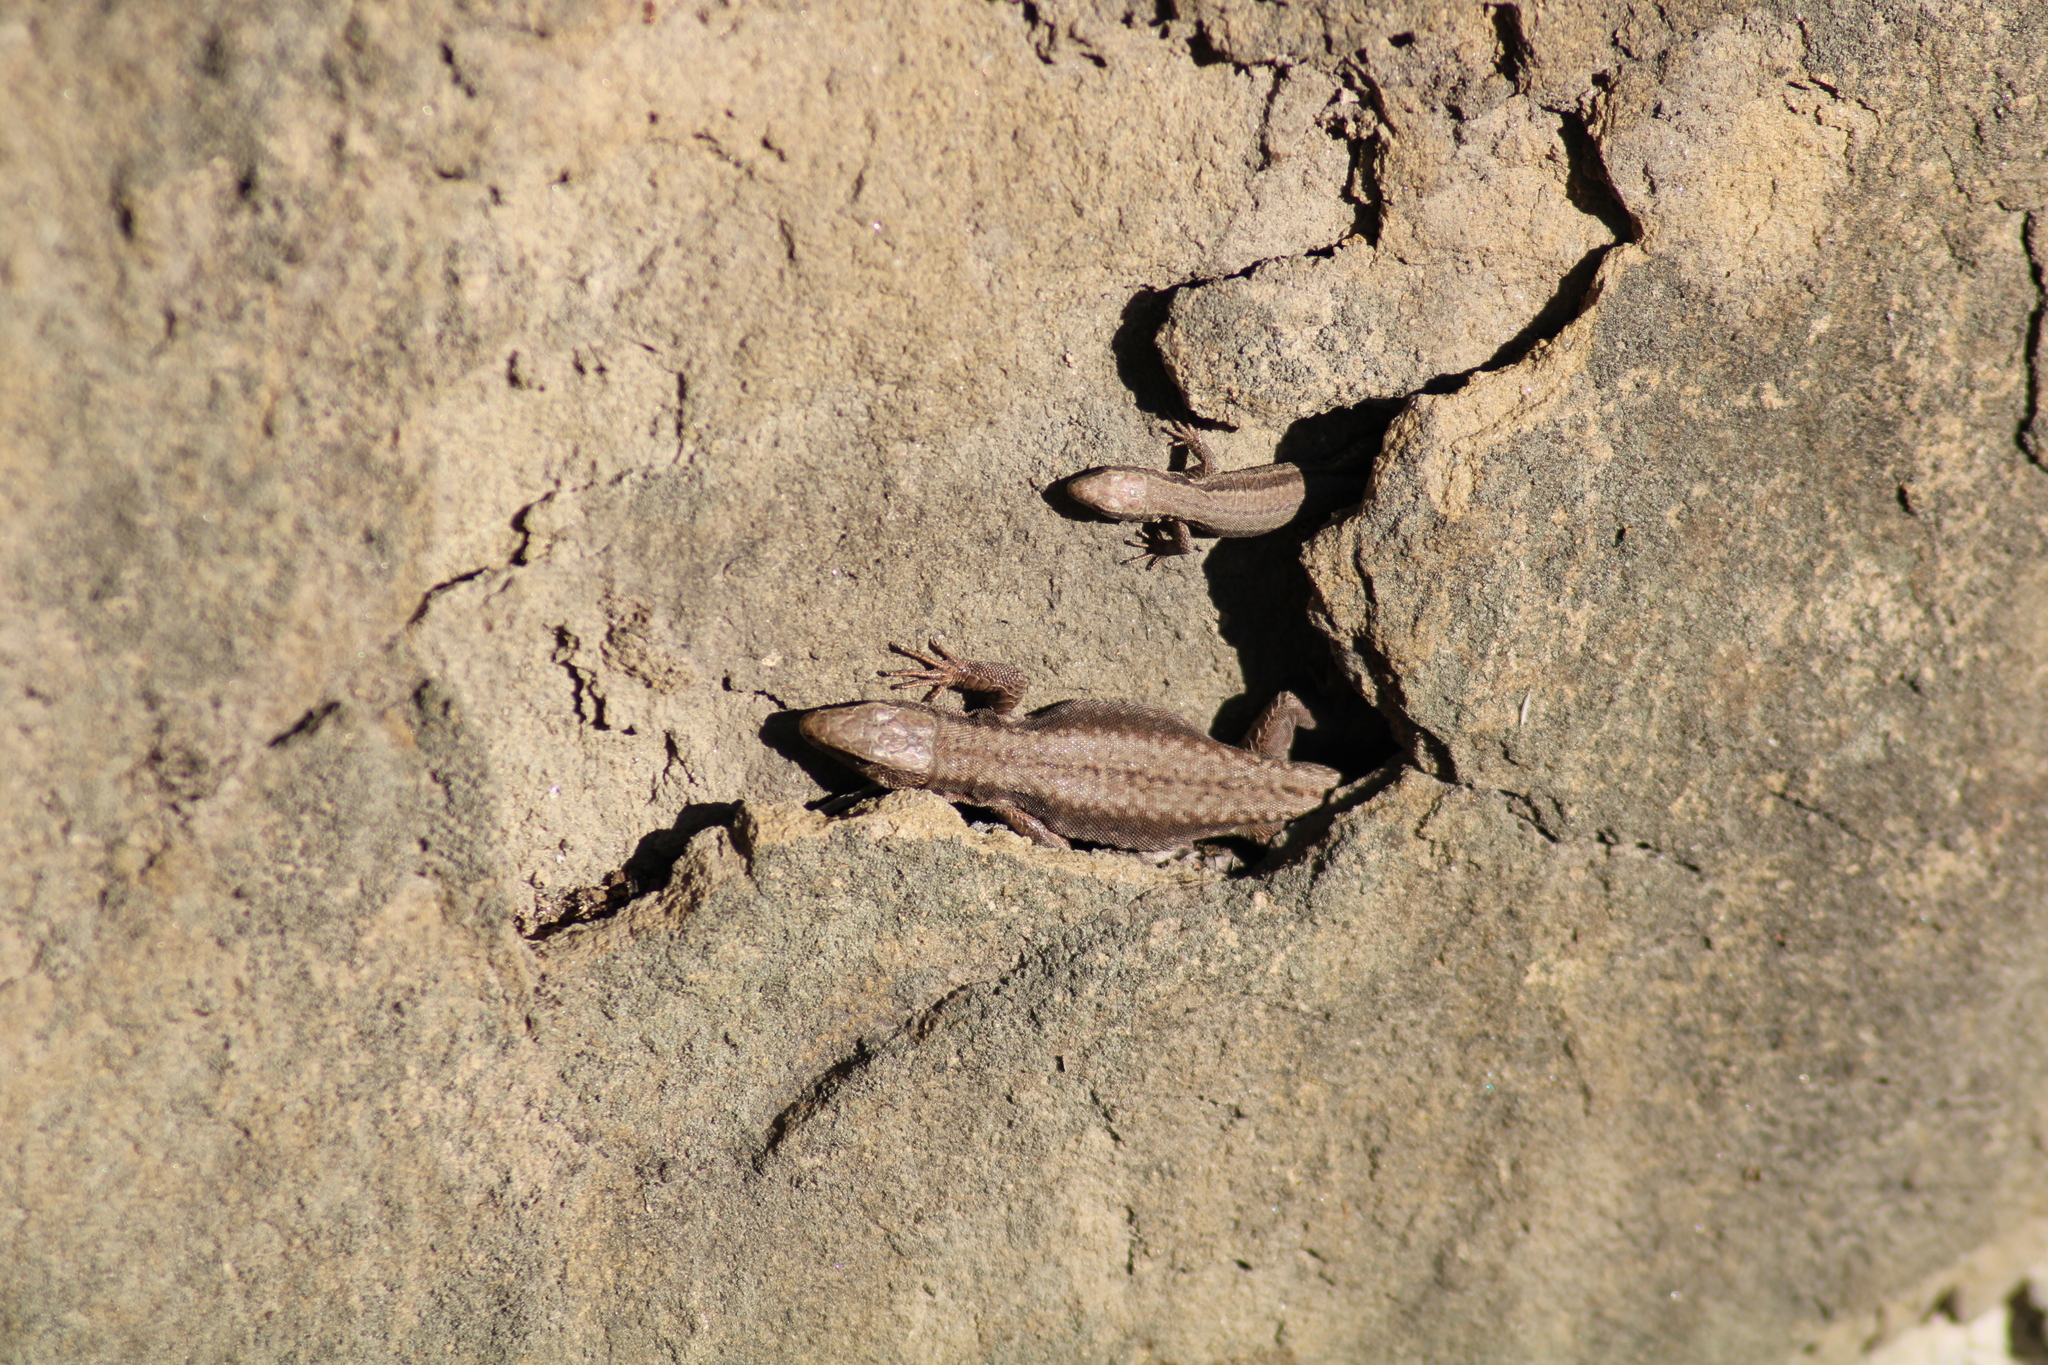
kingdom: Animalia
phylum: Chordata
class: Squamata
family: Lacertidae
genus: Podarcis
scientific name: Podarcis muralis
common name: Common wall lizard
